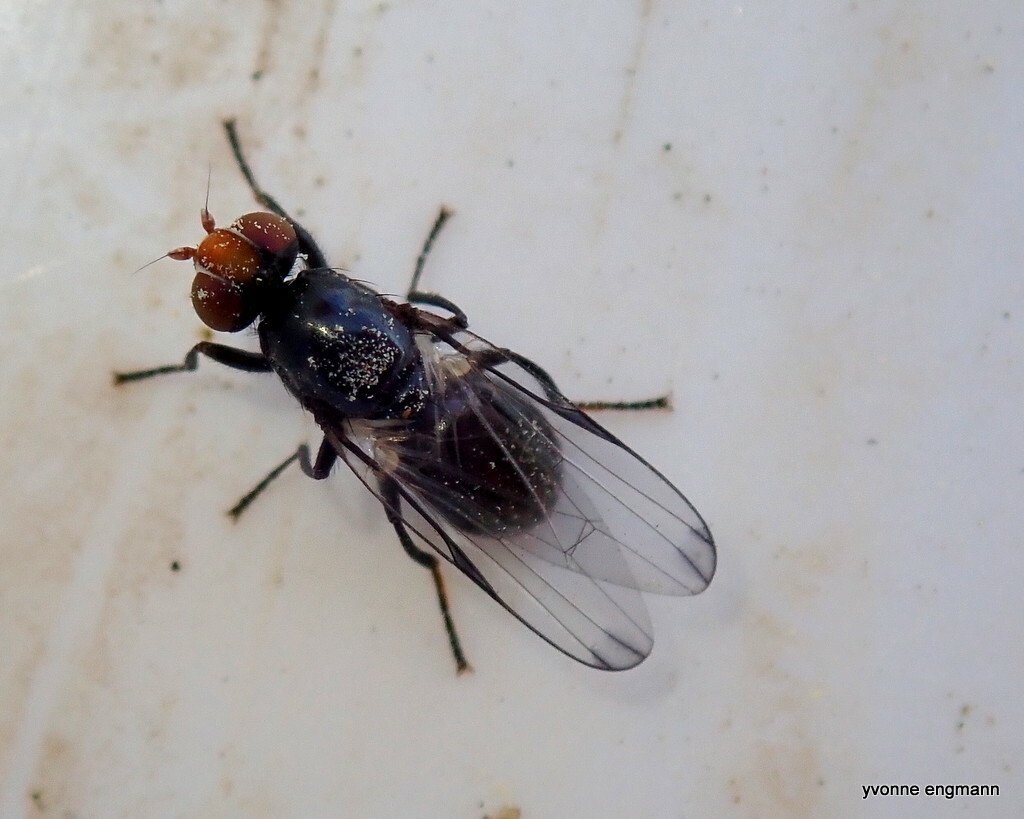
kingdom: Animalia
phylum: Arthropoda
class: Insecta
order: Diptera
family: Ulidiidae
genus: Seioptera
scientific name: Seioptera vibrans
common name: Dark-tipped wingwaver
